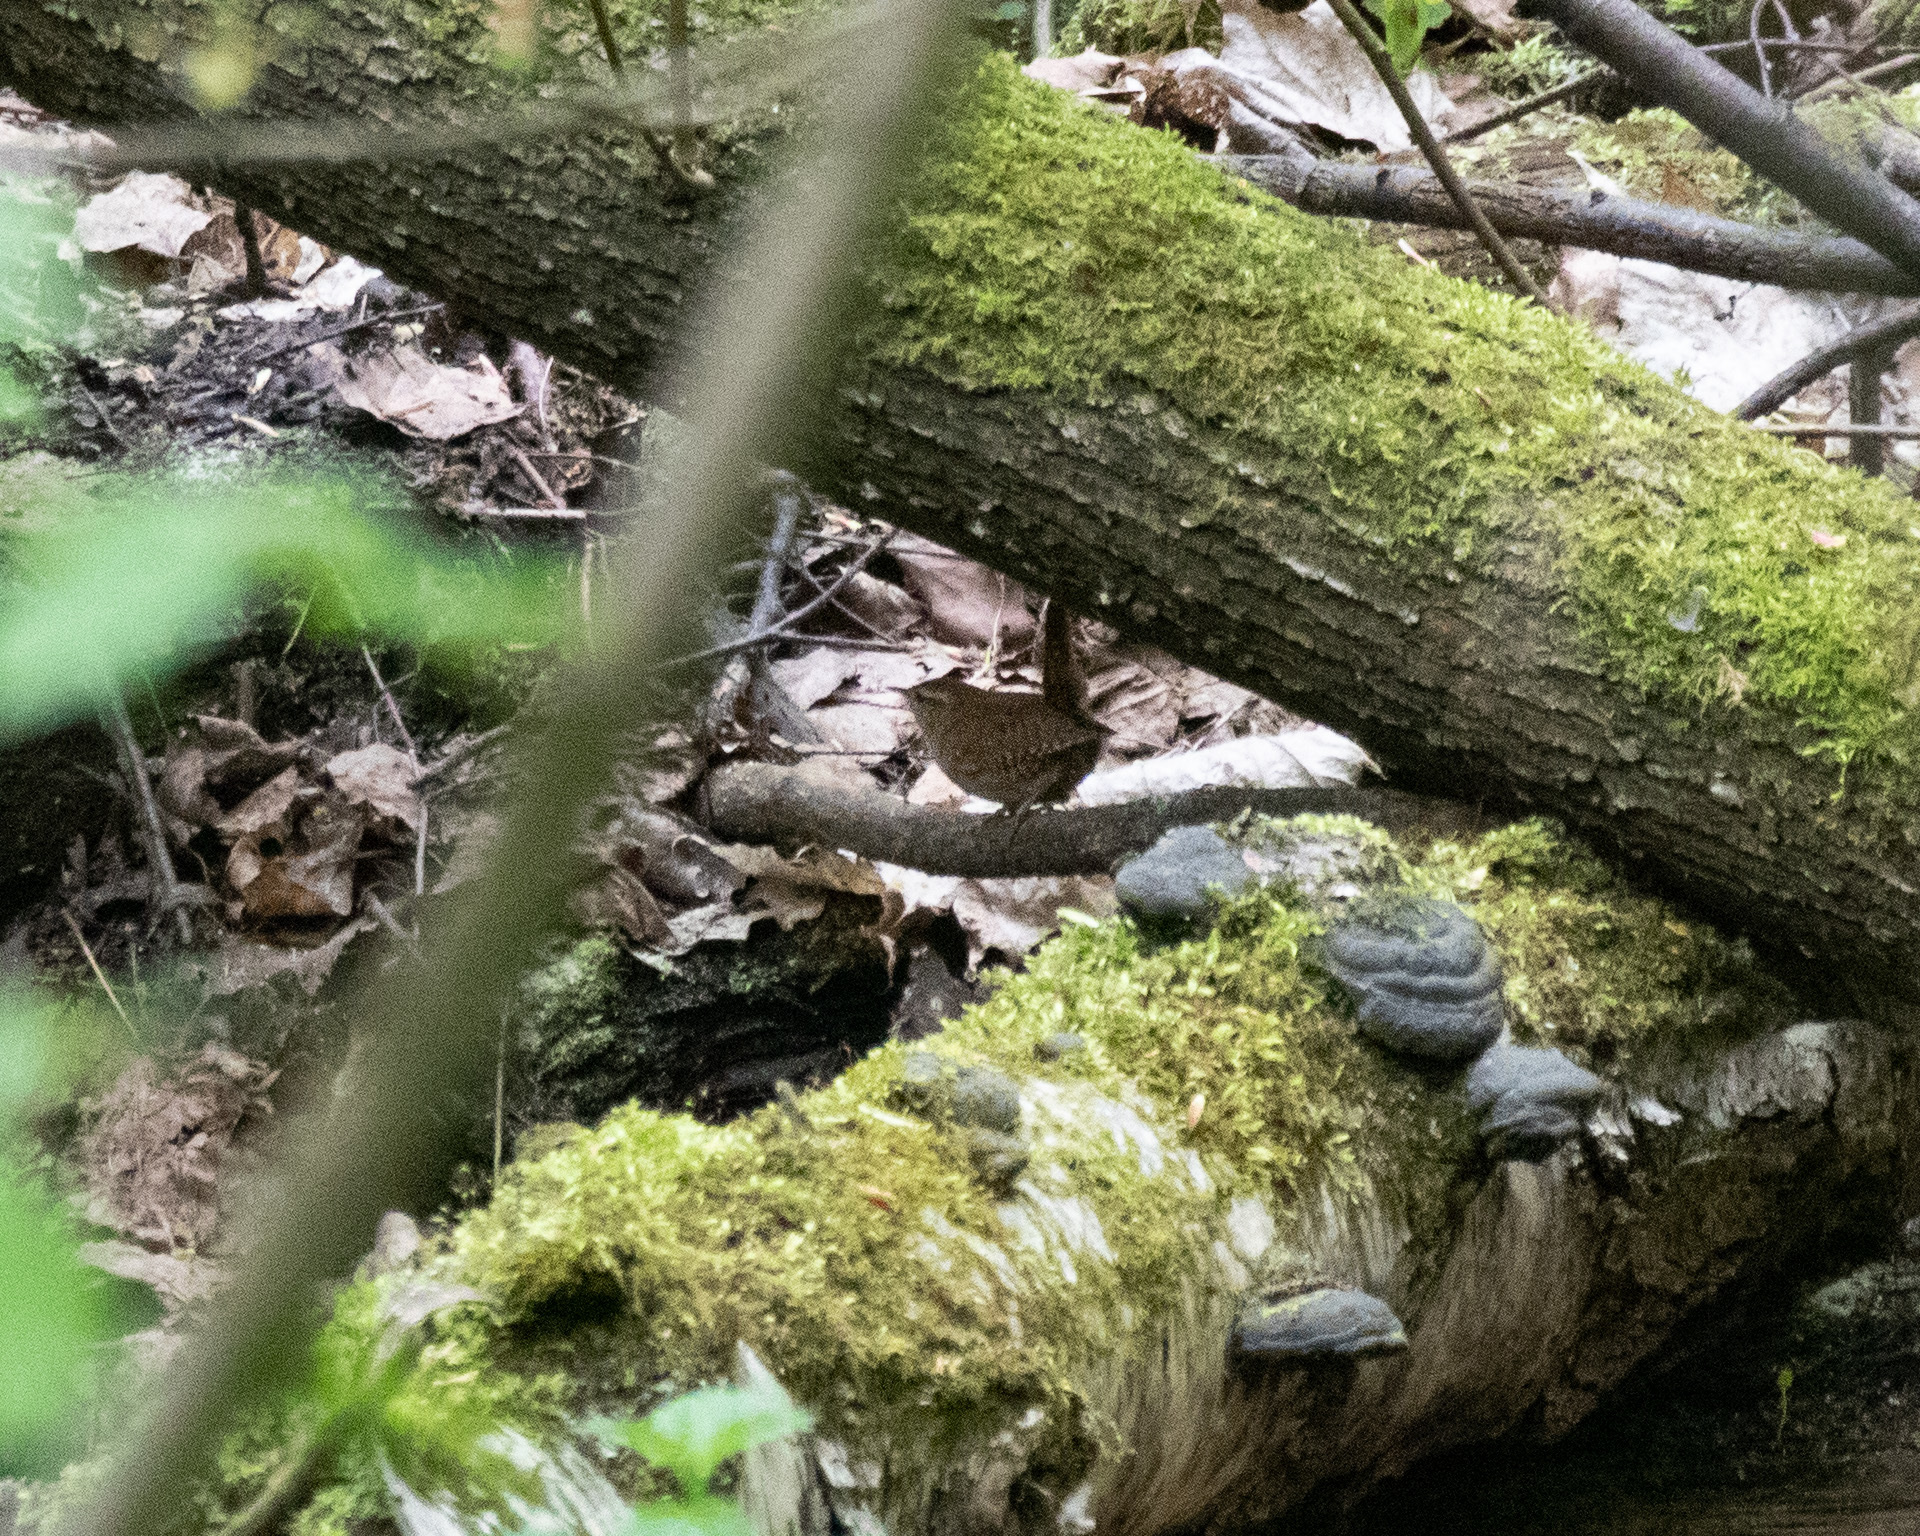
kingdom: Animalia
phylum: Chordata
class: Aves
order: Passeriformes
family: Troglodytidae
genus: Troglodytes
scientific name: Troglodytes troglodytes
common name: Eurasian wren
